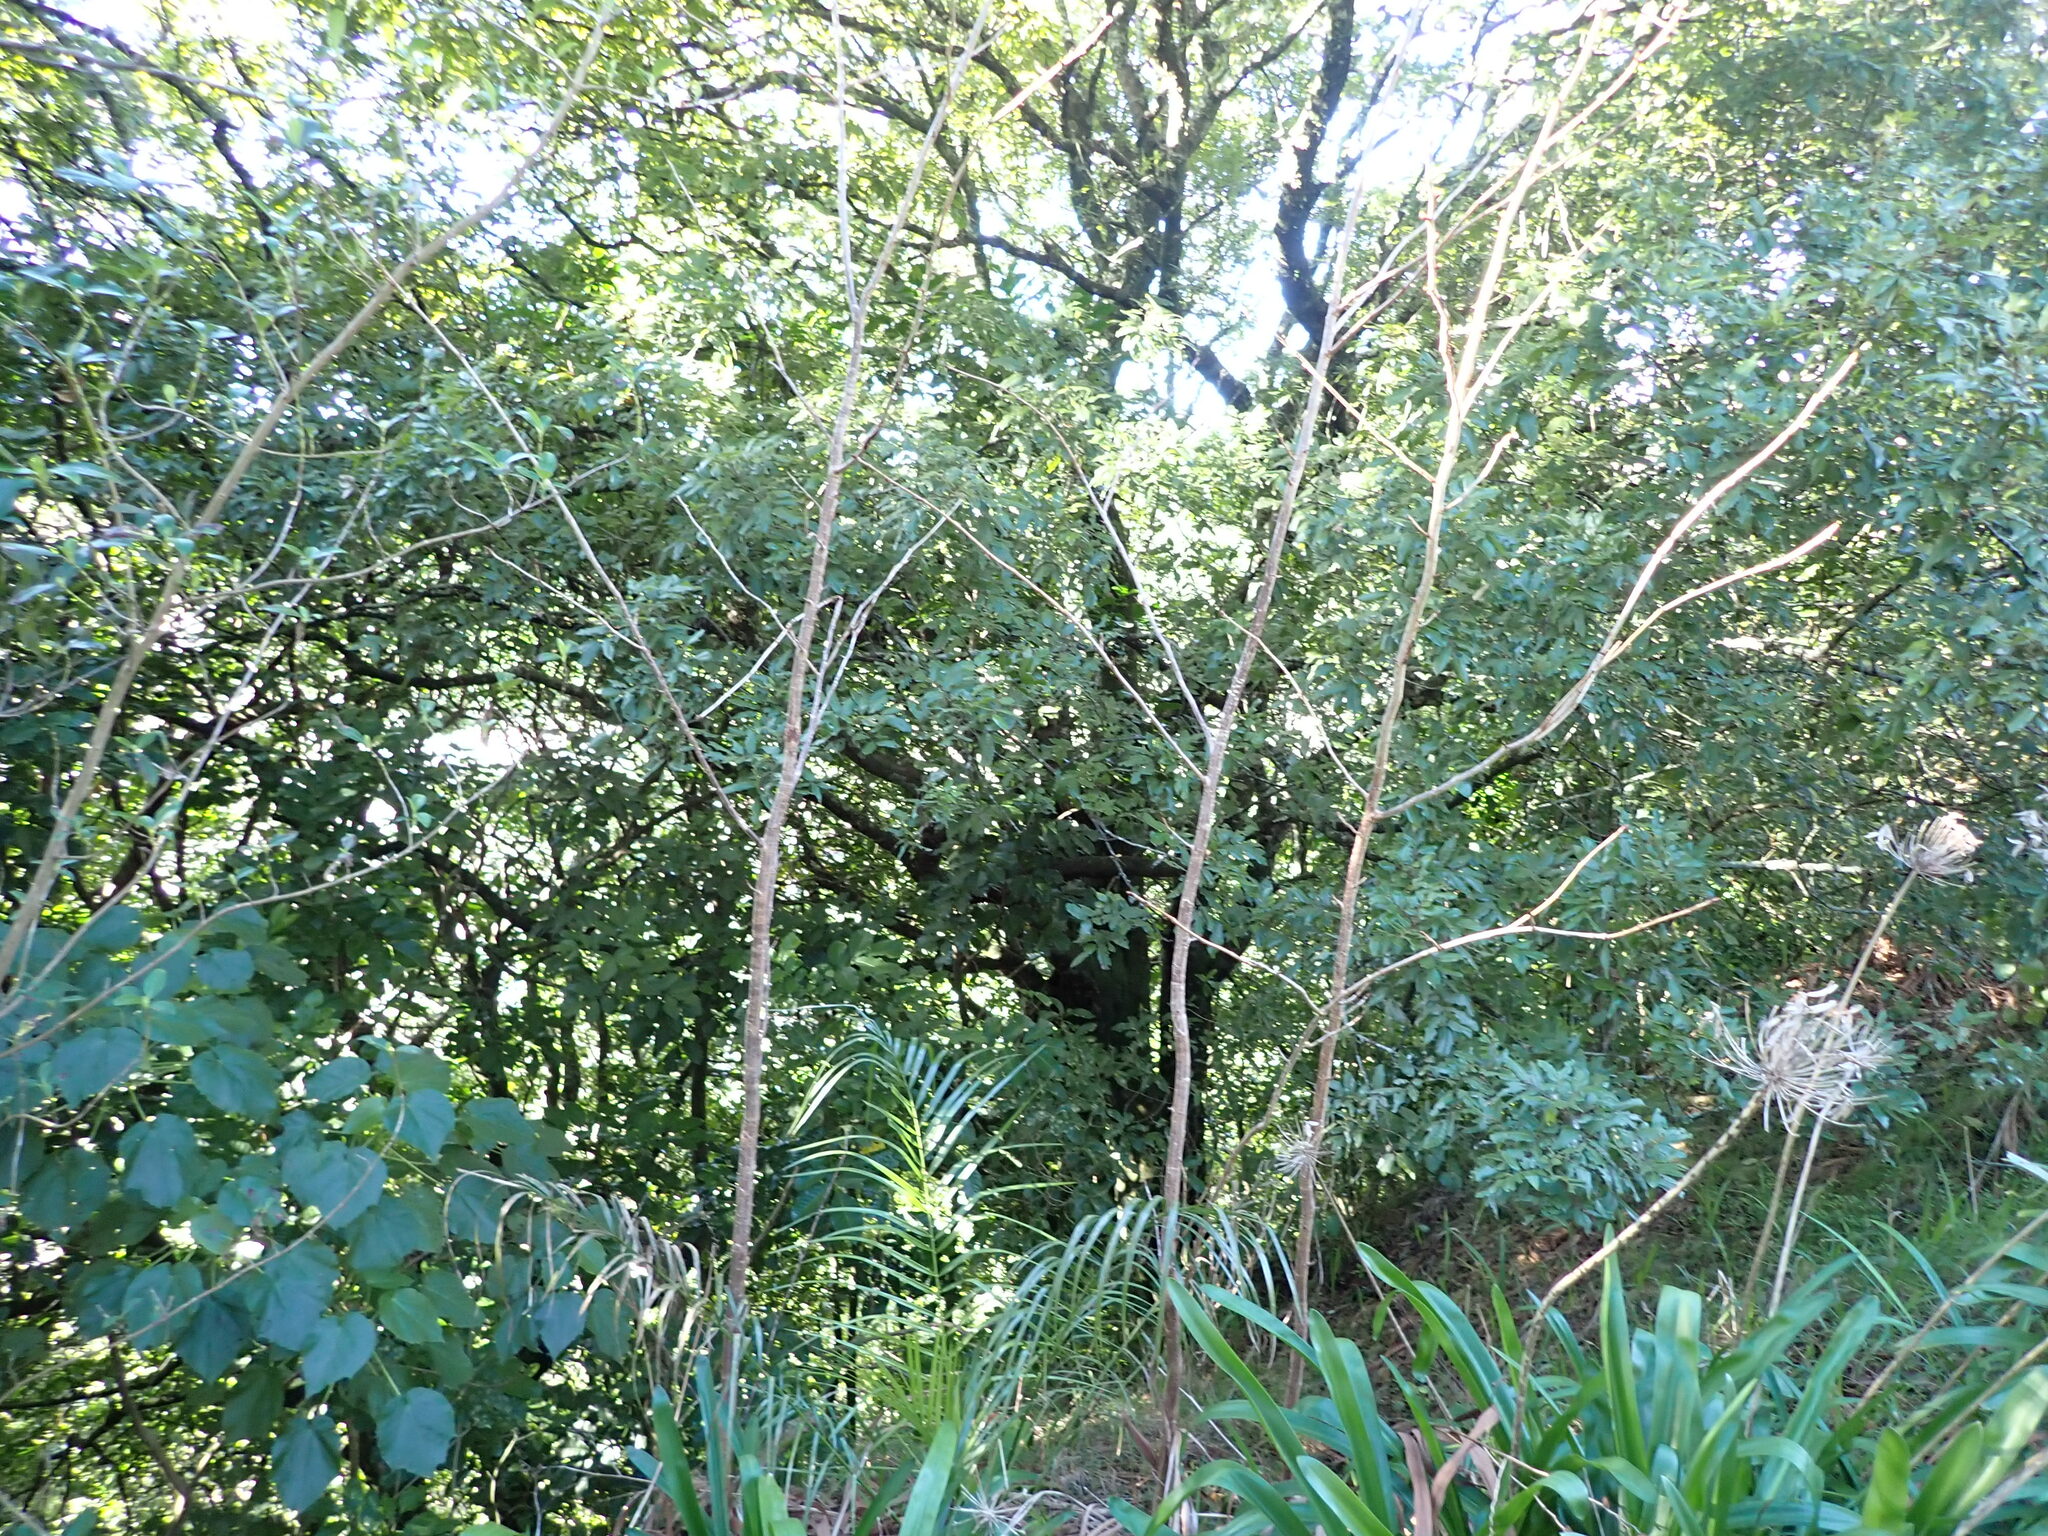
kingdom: Plantae
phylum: Tracheophyta
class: Liliopsida
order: Arecales
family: Arecaceae
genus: Phoenix
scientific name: Phoenix canariensis
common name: Canary island date palm
